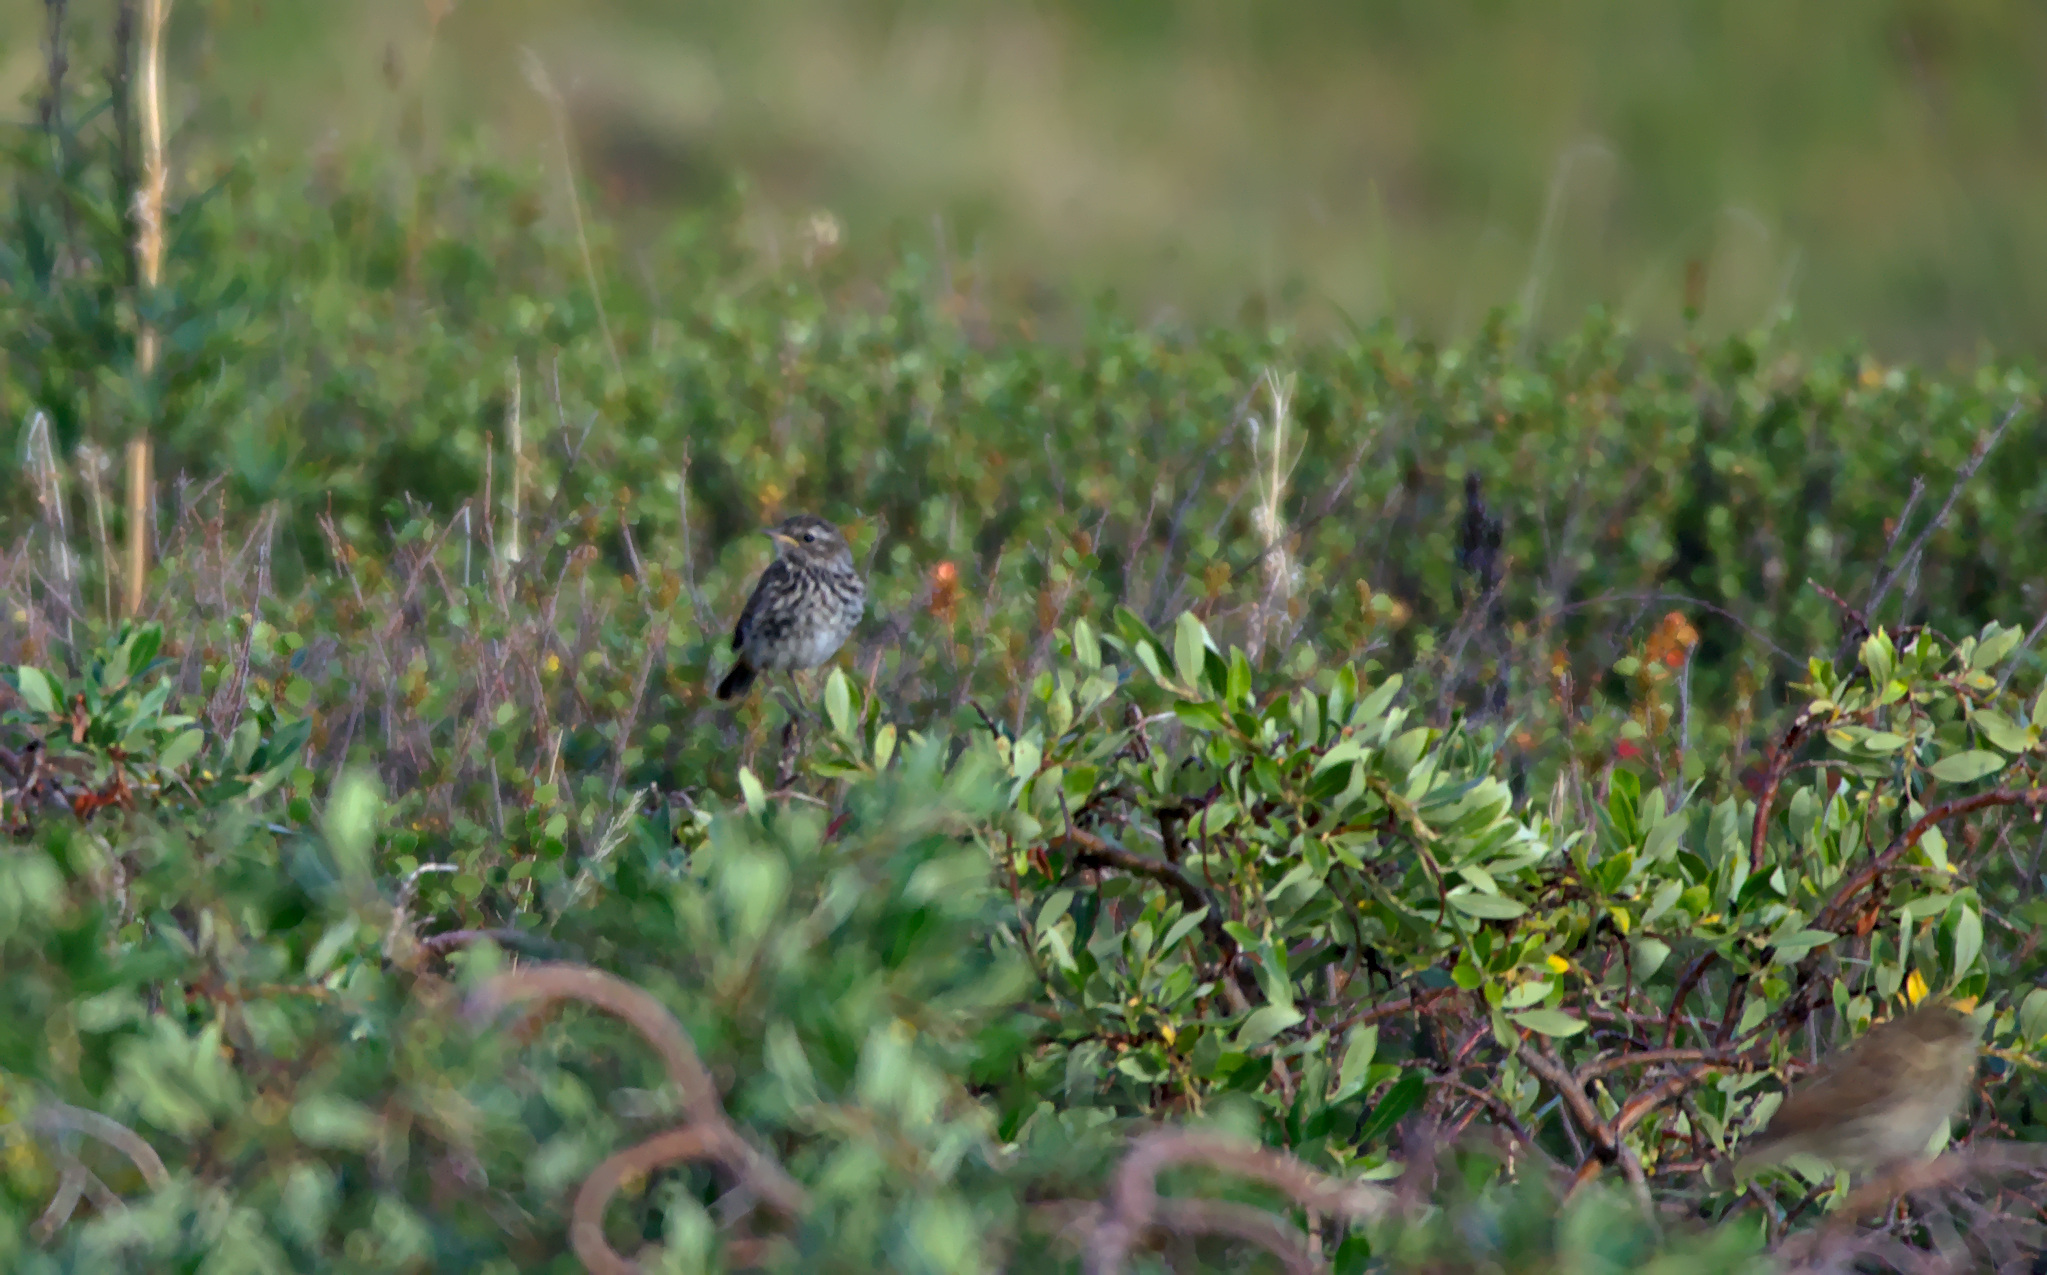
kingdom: Animalia
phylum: Chordata
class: Aves
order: Passeriformes
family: Muscicapidae
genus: Luscinia
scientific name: Luscinia svecica
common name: Bluethroat
